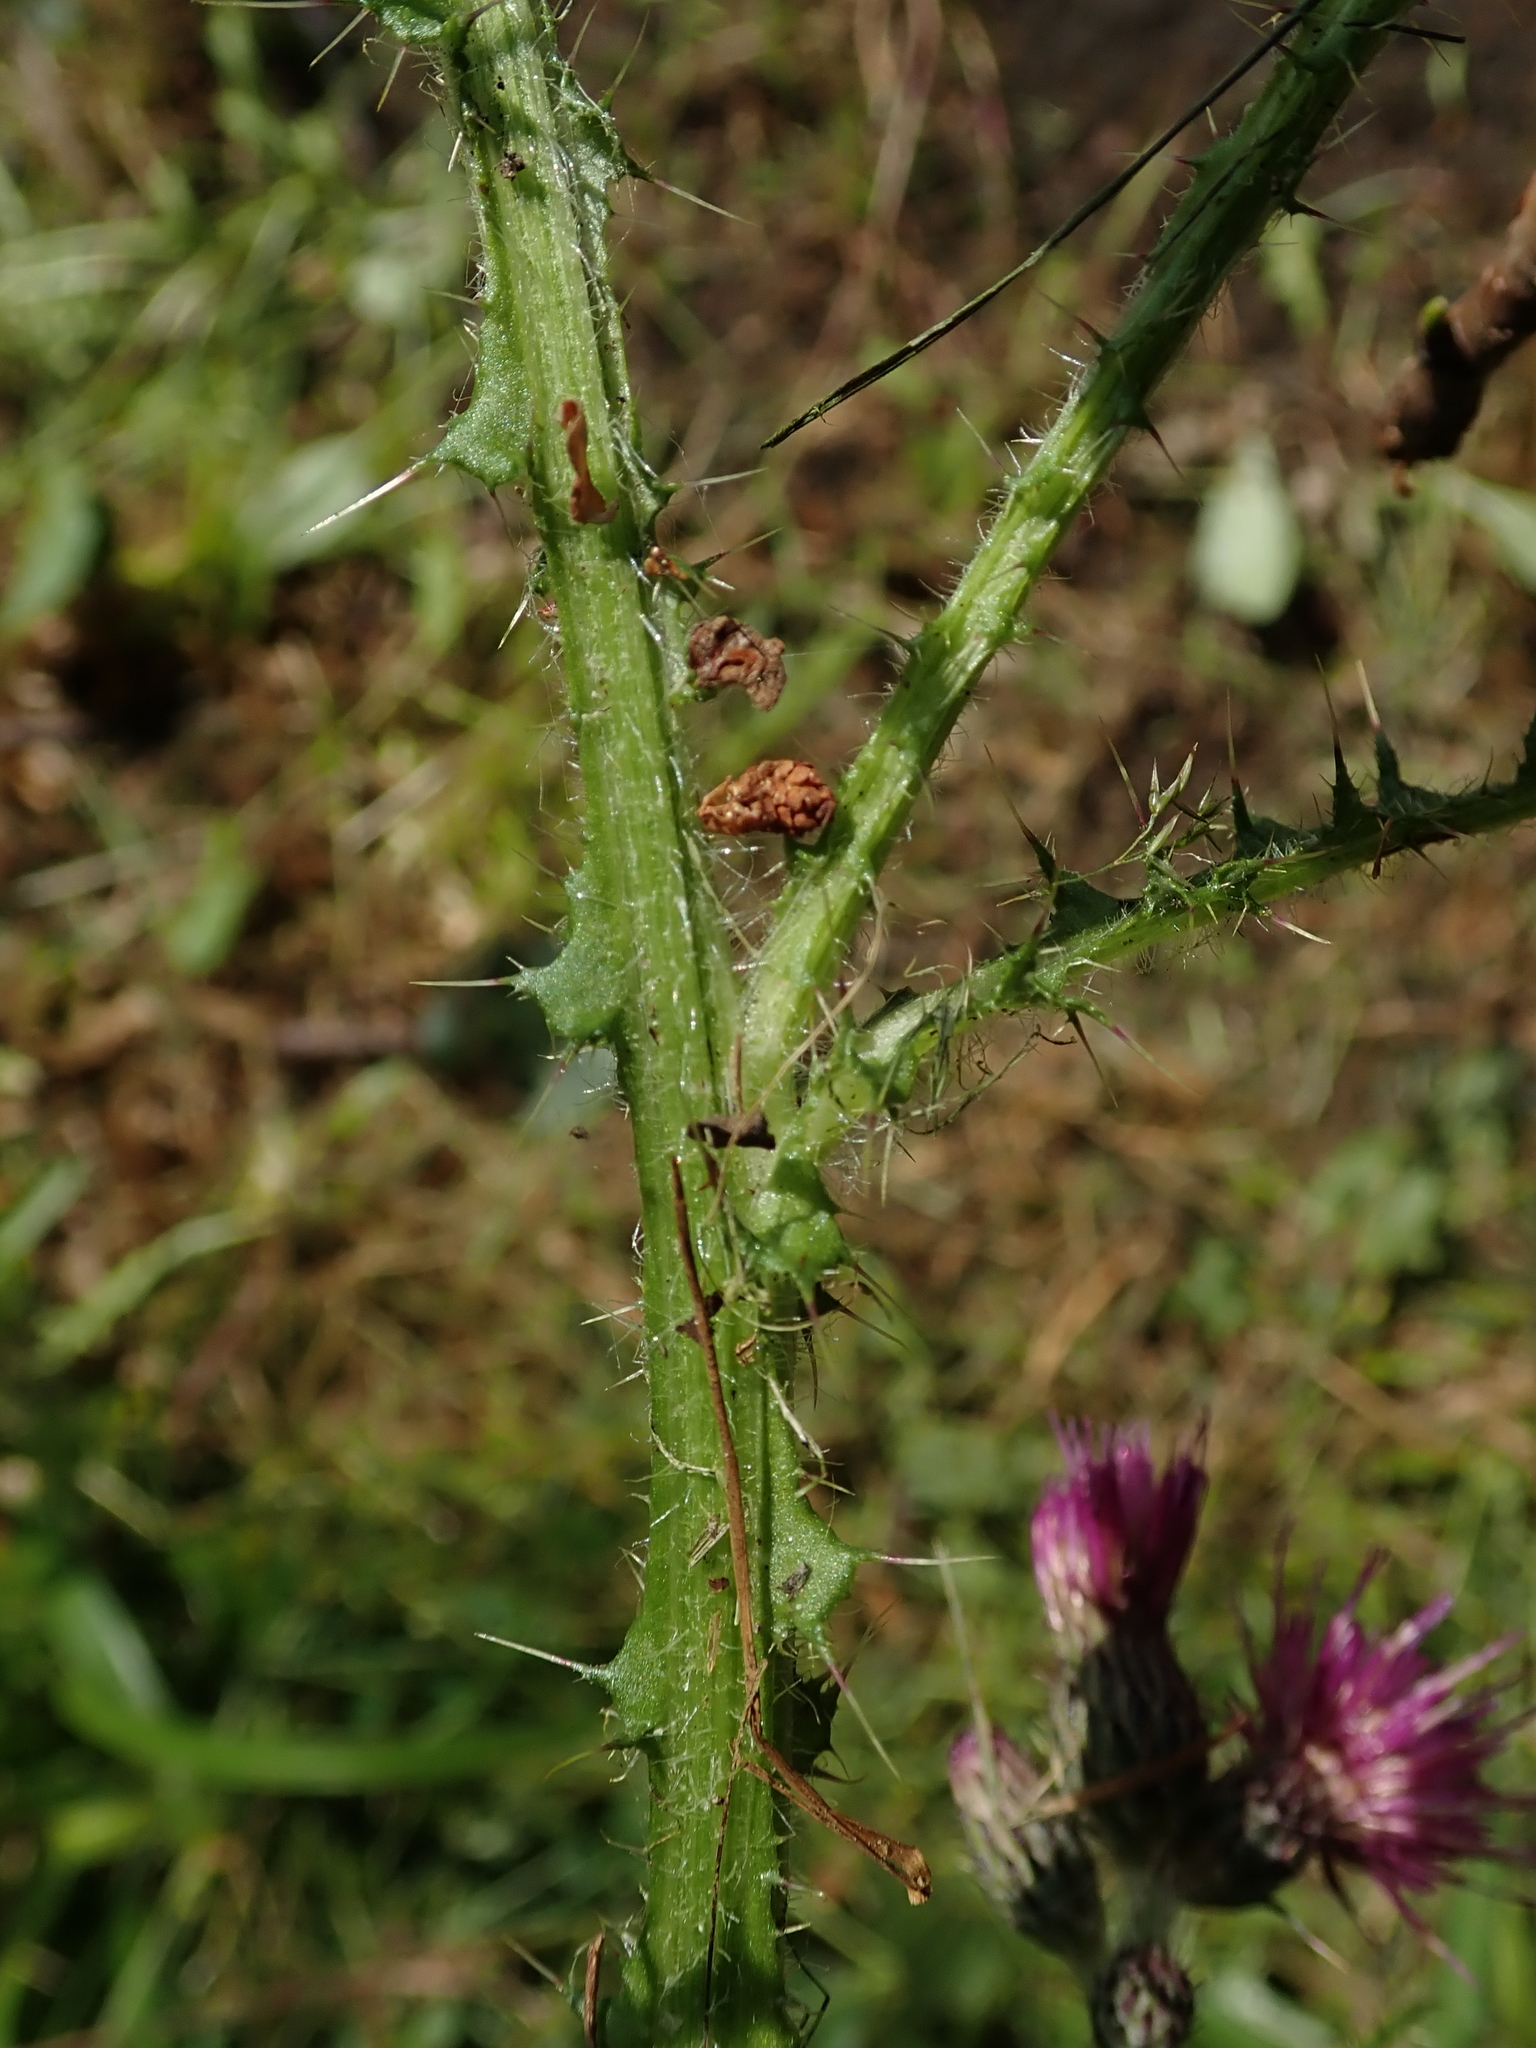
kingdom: Plantae
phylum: Tracheophyta
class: Magnoliopsida
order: Asterales
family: Asteraceae
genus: Cirsium
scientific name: Cirsium palustre
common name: Marsh thistle
